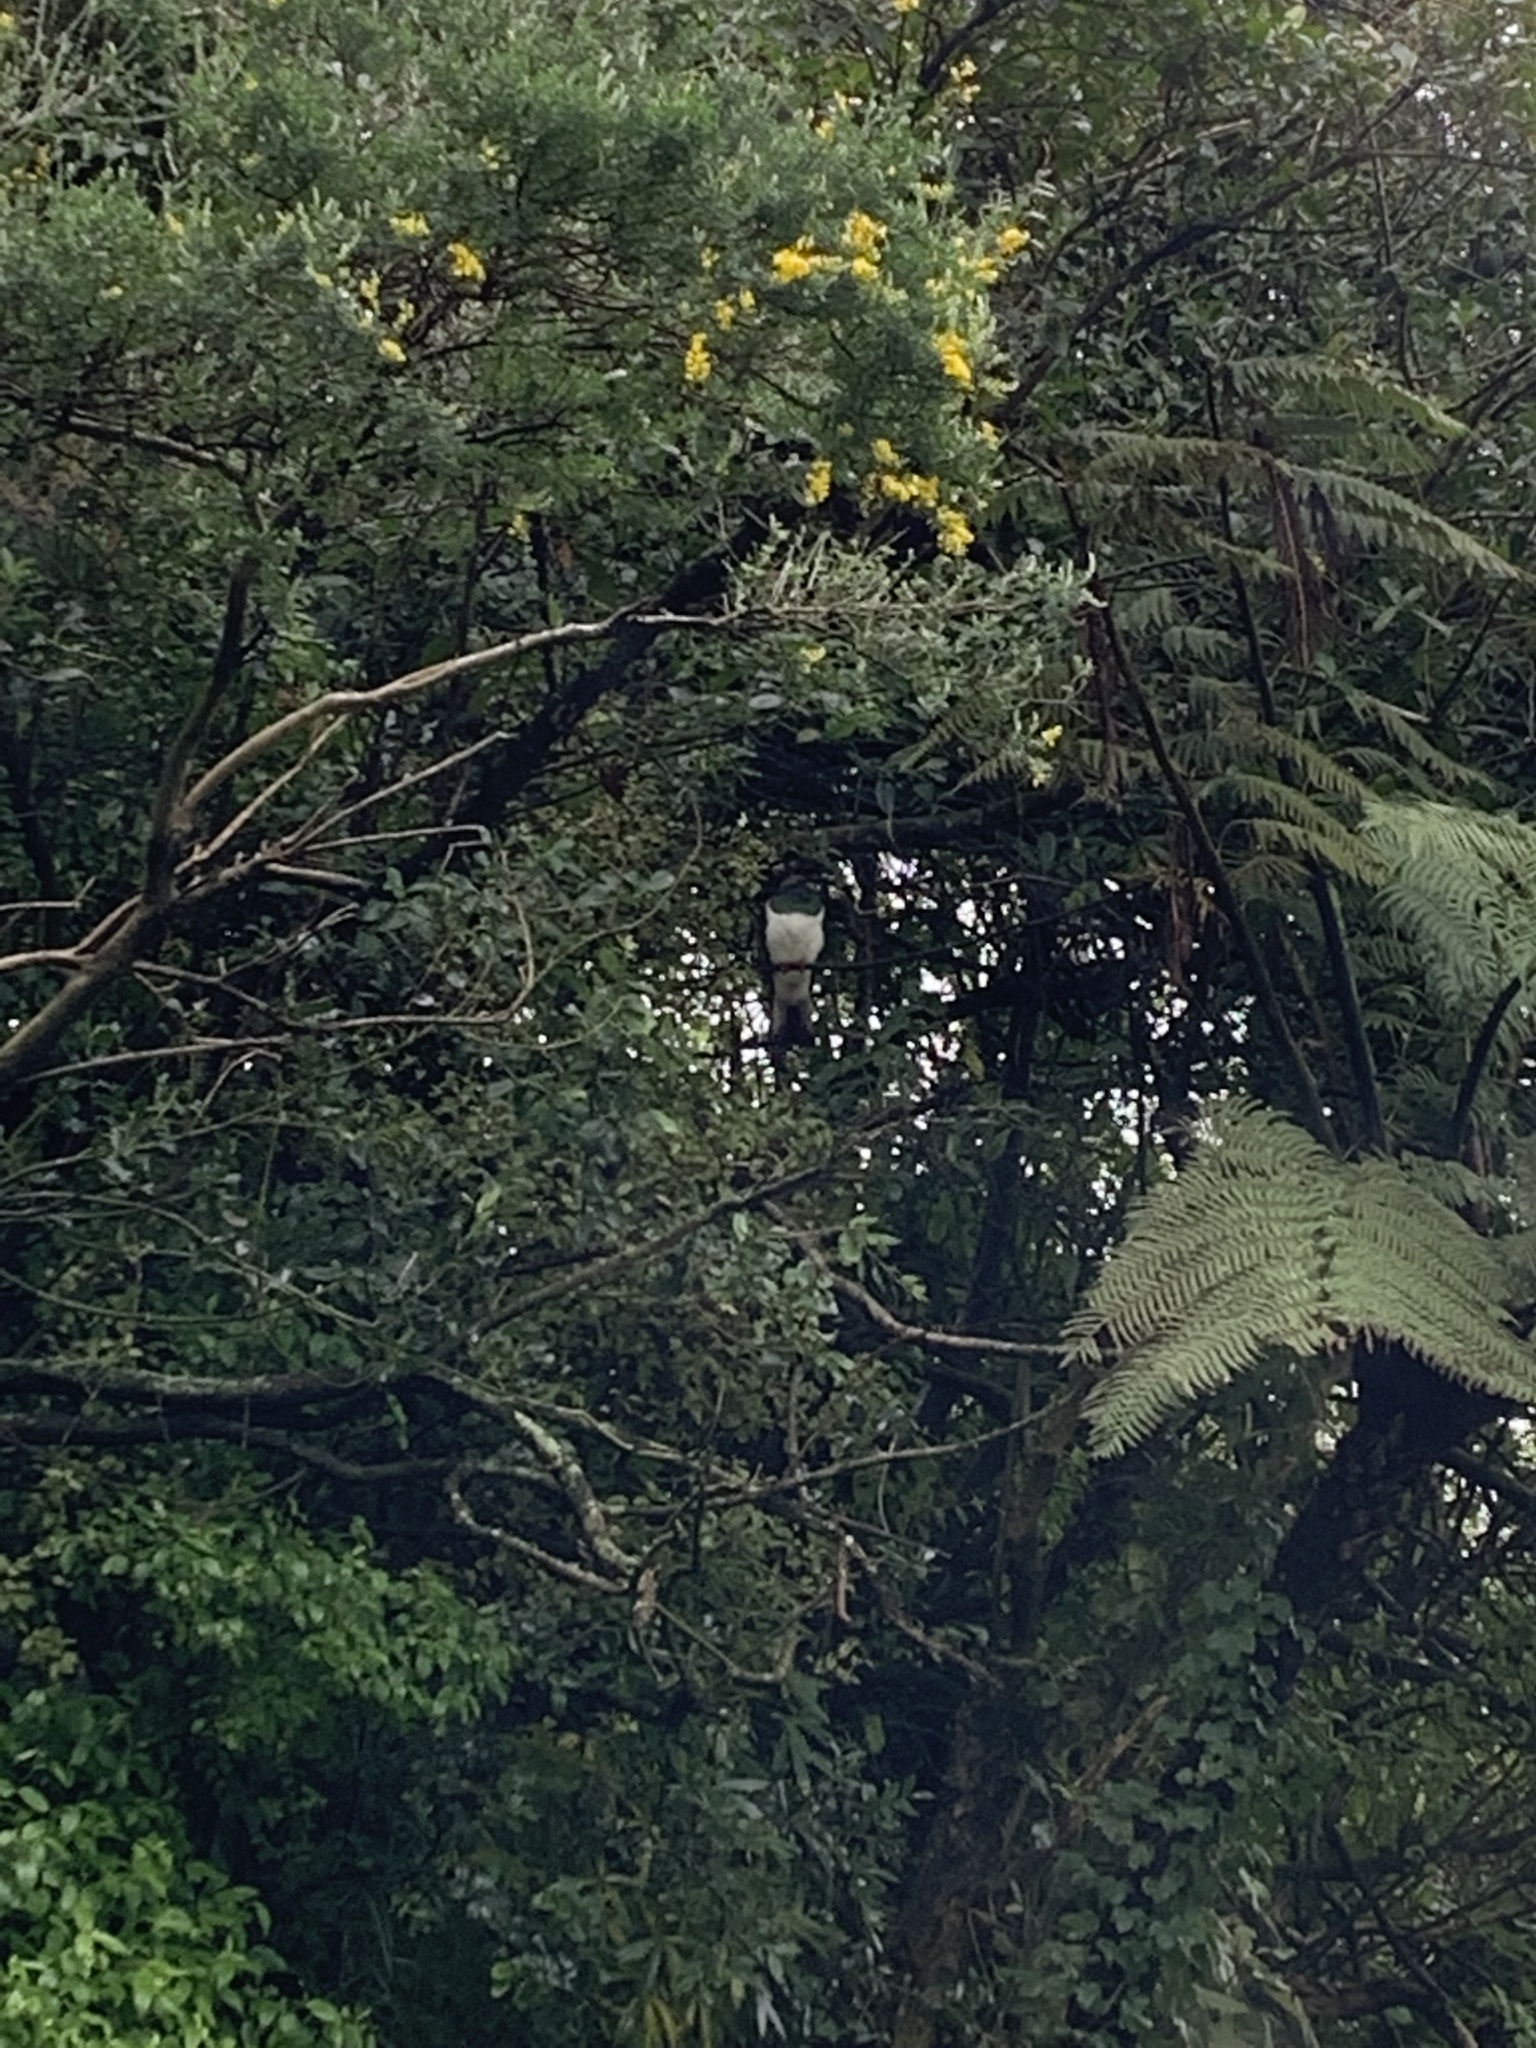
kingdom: Animalia
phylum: Chordata
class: Aves
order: Columbiformes
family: Columbidae
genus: Hemiphaga
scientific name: Hemiphaga novaeseelandiae
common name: New zealand pigeon
